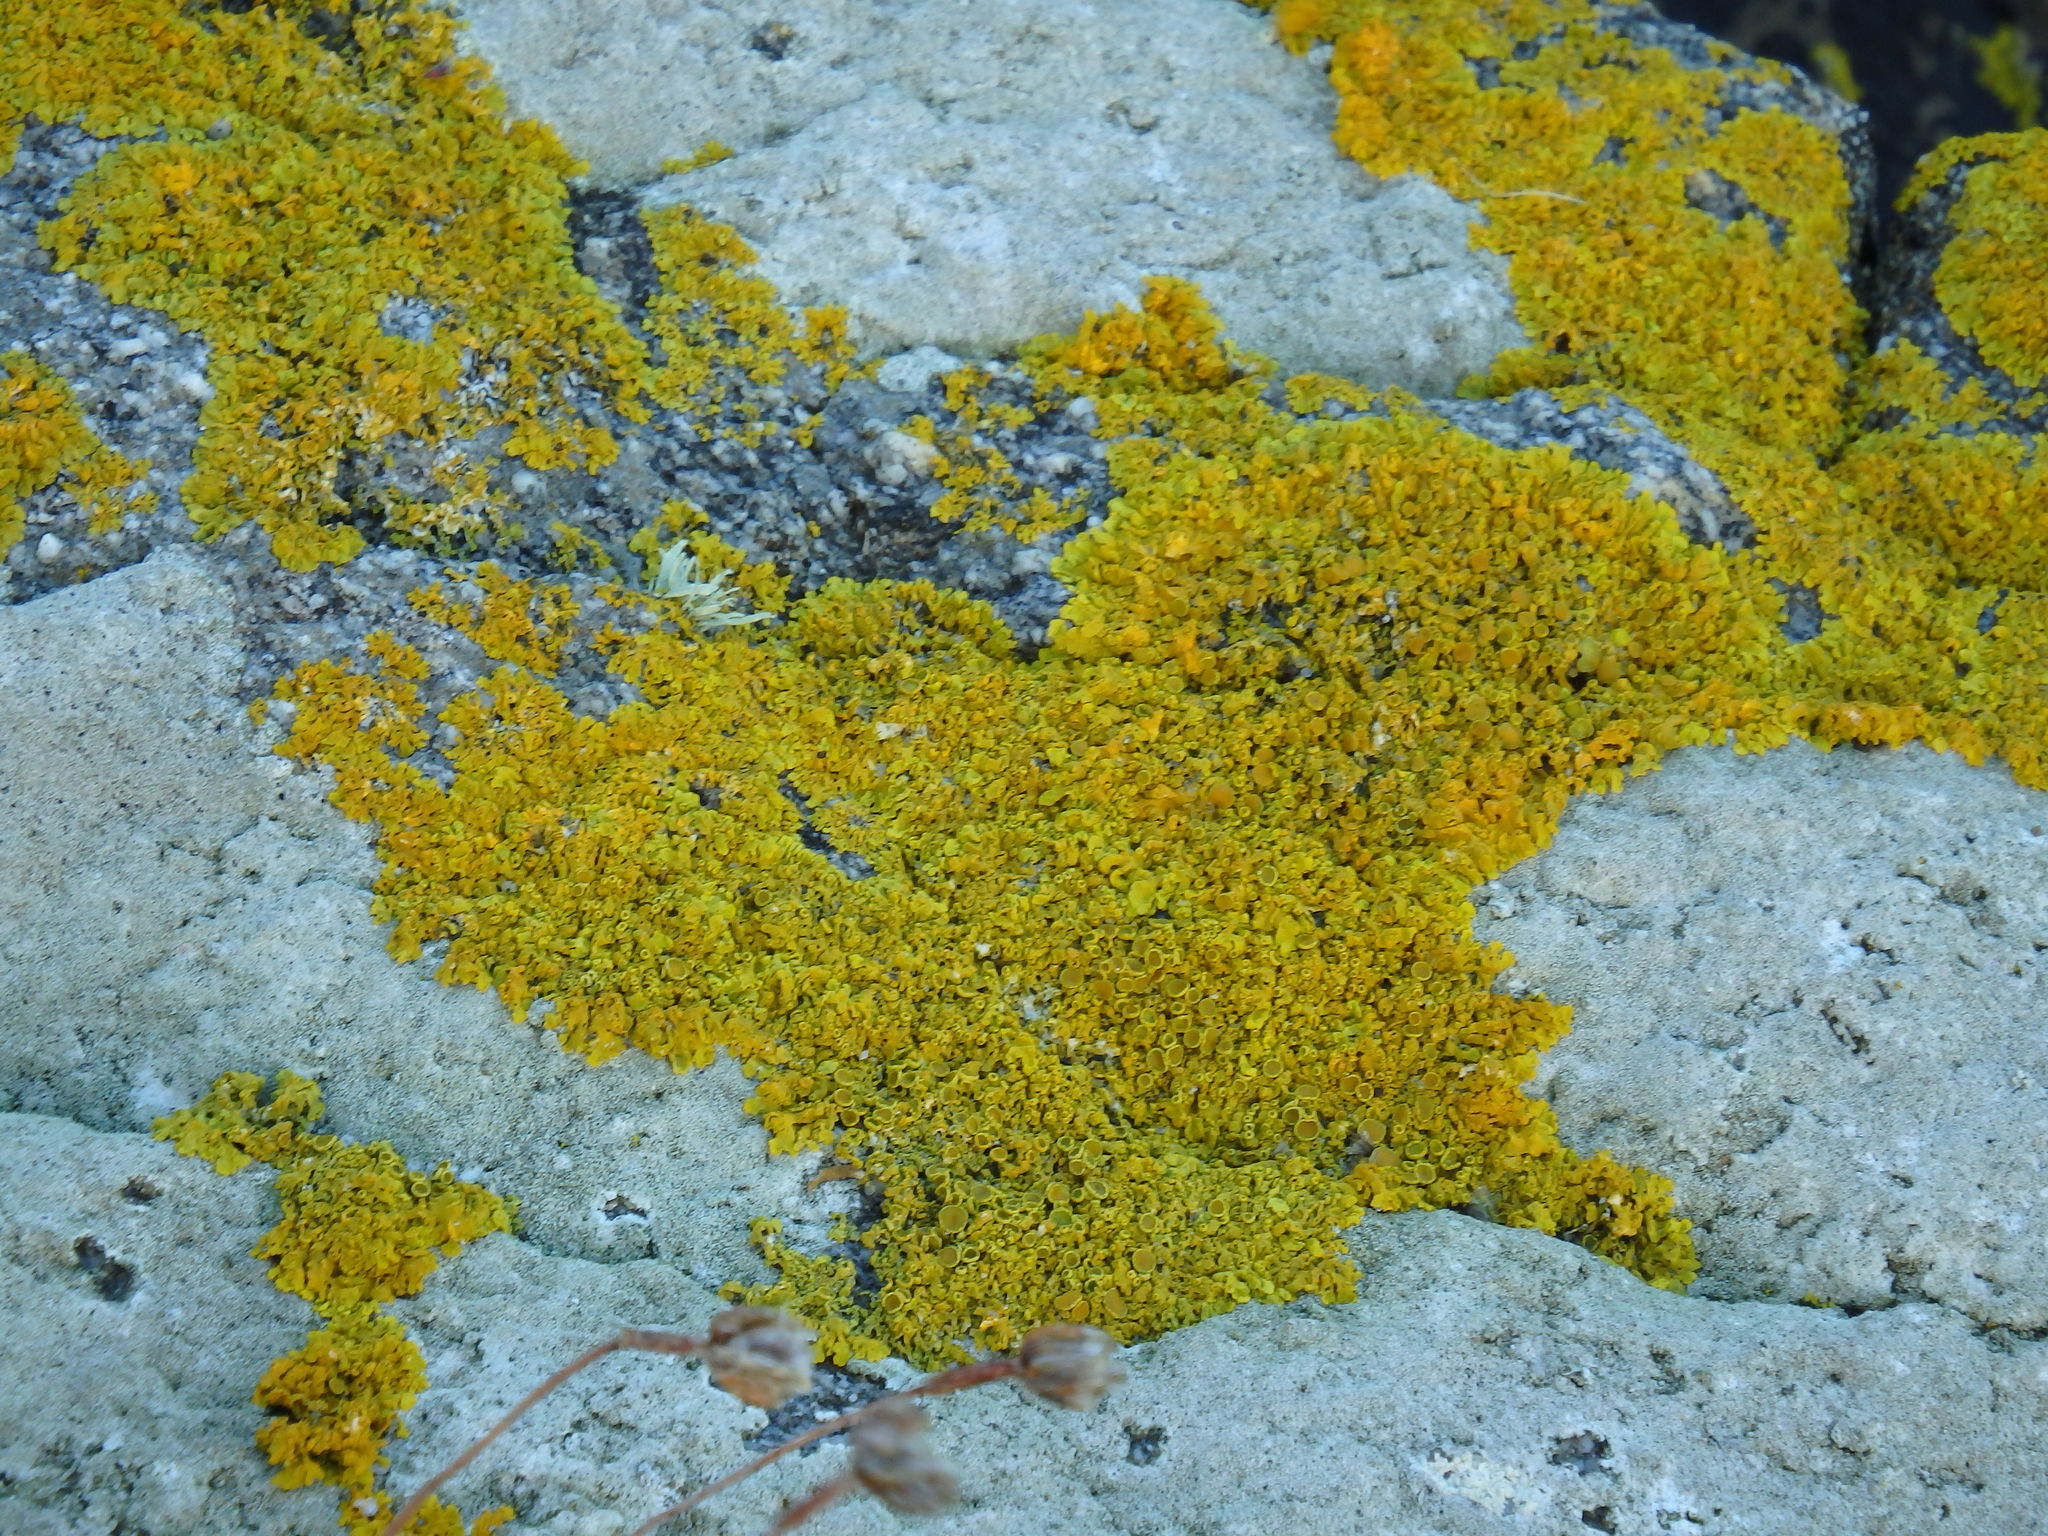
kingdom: Fungi
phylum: Ascomycota
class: Lecanoromycetes
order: Teloschistales
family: Teloschistaceae
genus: Xanthoria
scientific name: Xanthoria
